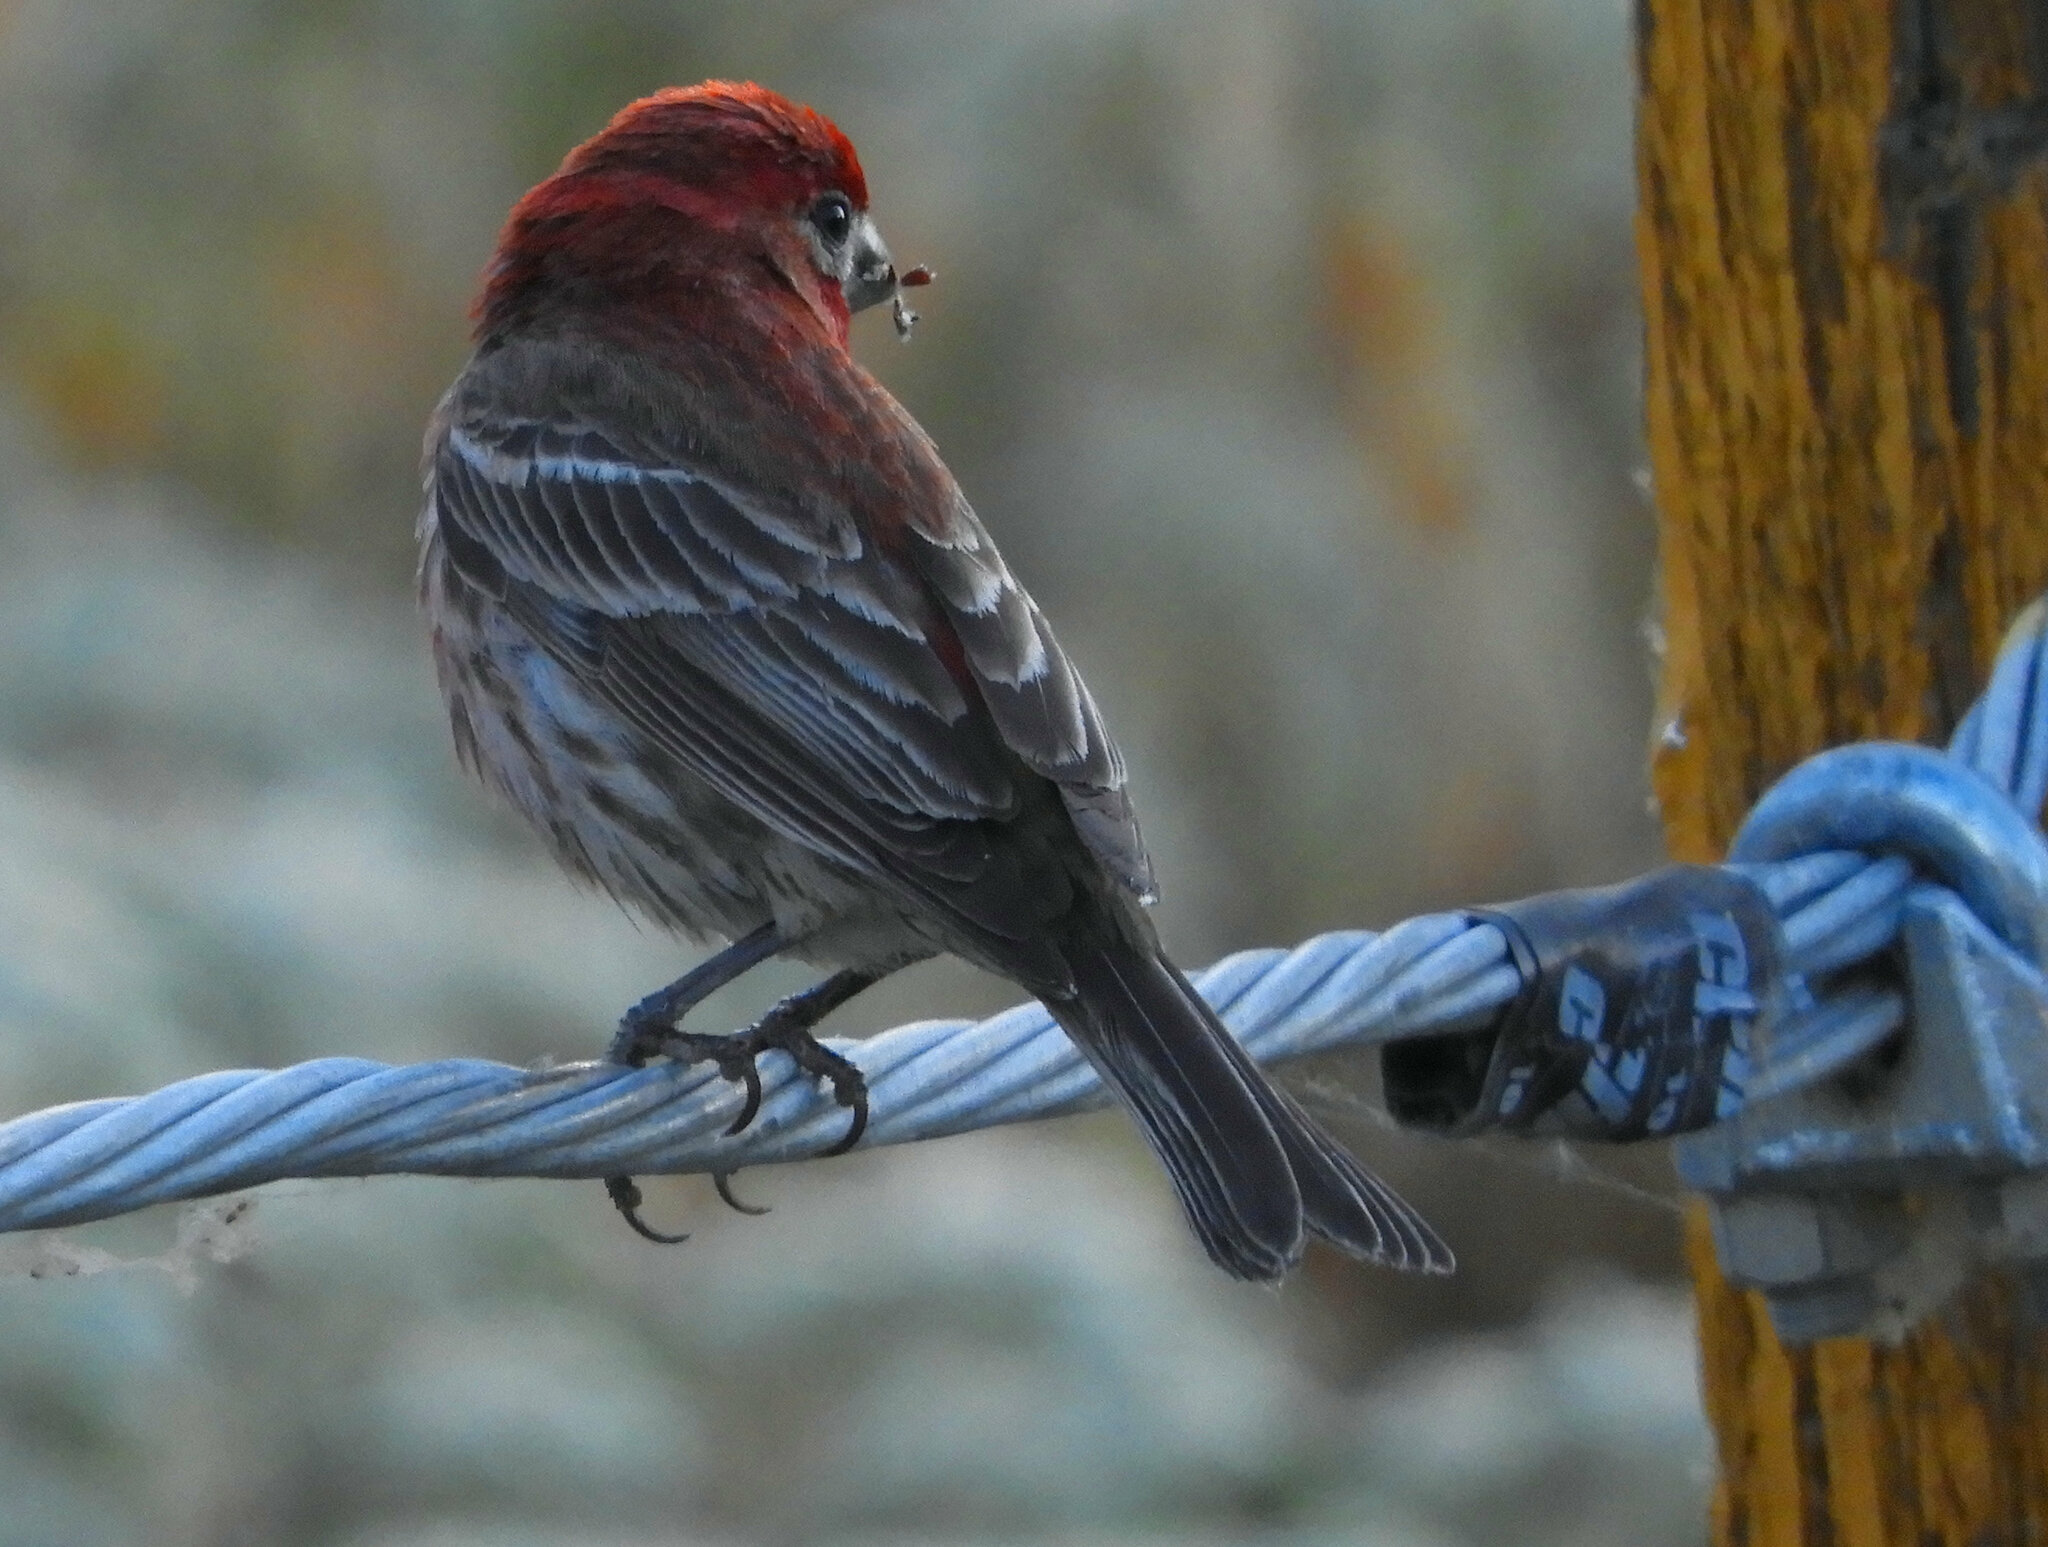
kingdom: Animalia
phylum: Chordata
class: Aves
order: Passeriformes
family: Fringillidae
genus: Haemorhous
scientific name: Haemorhous mexicanus
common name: House finch
